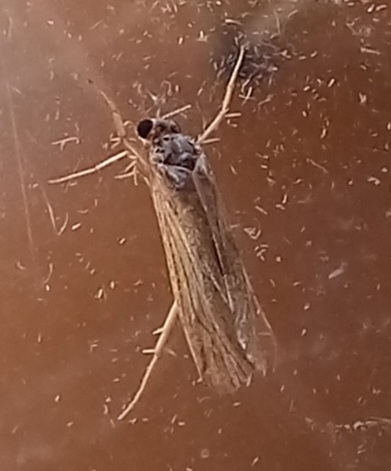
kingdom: Animalia
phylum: Arthropoda
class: Insecta
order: Lepidoptera
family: Crambidae
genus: Nomophila
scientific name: Nomophila noctuella
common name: Rush veneer
